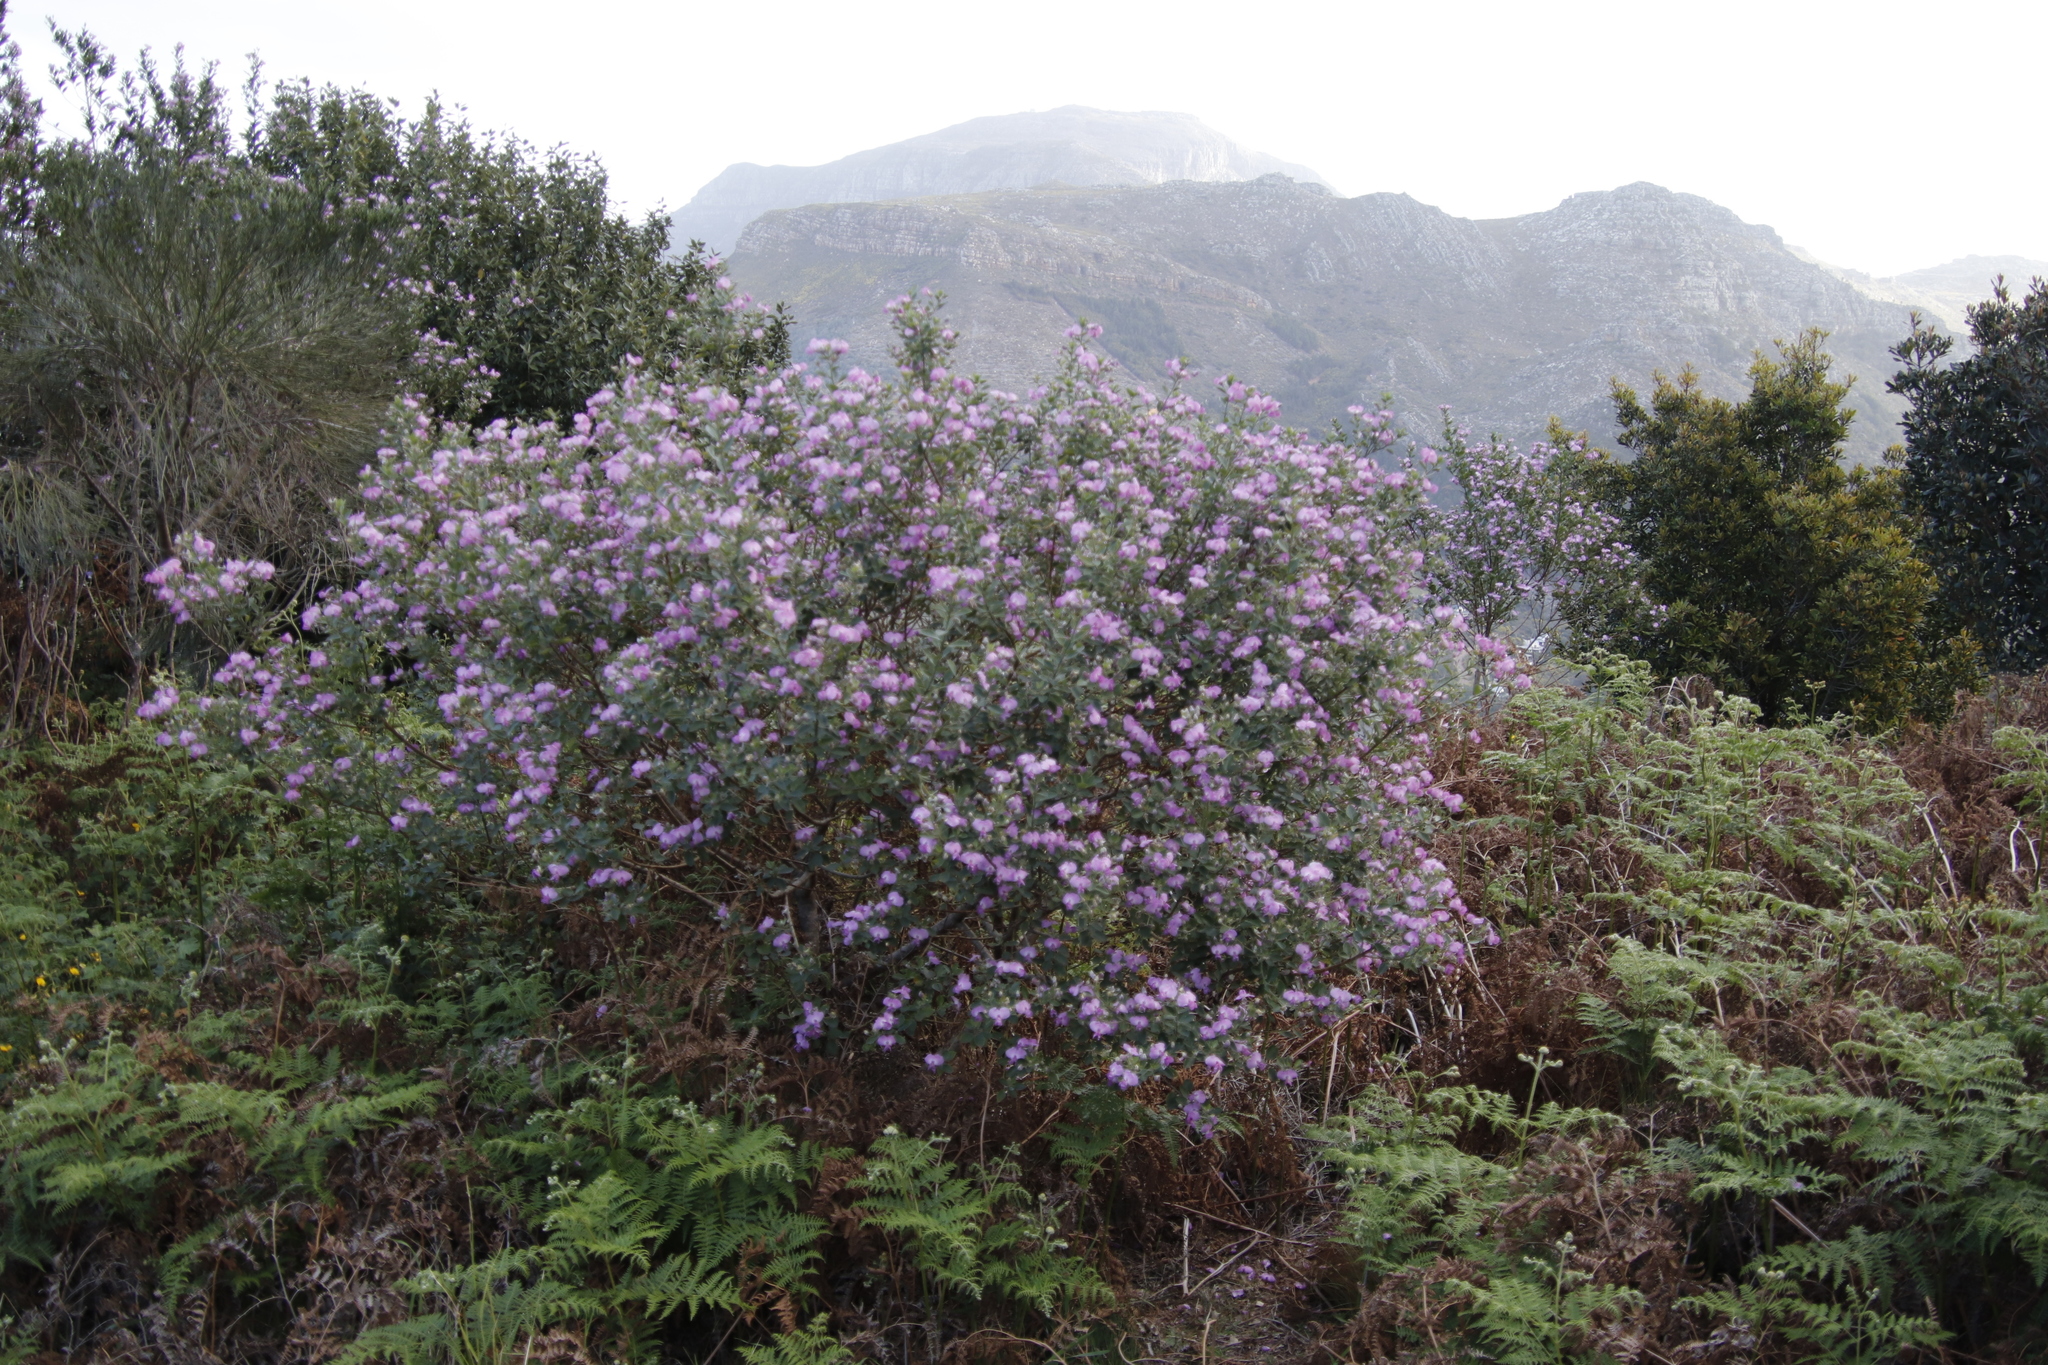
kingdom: Plantae
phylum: Tracheophyta
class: Magnoliopsida
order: Fabales
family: Fabaceae
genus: Podalyria
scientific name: Podalyria calyptrata
